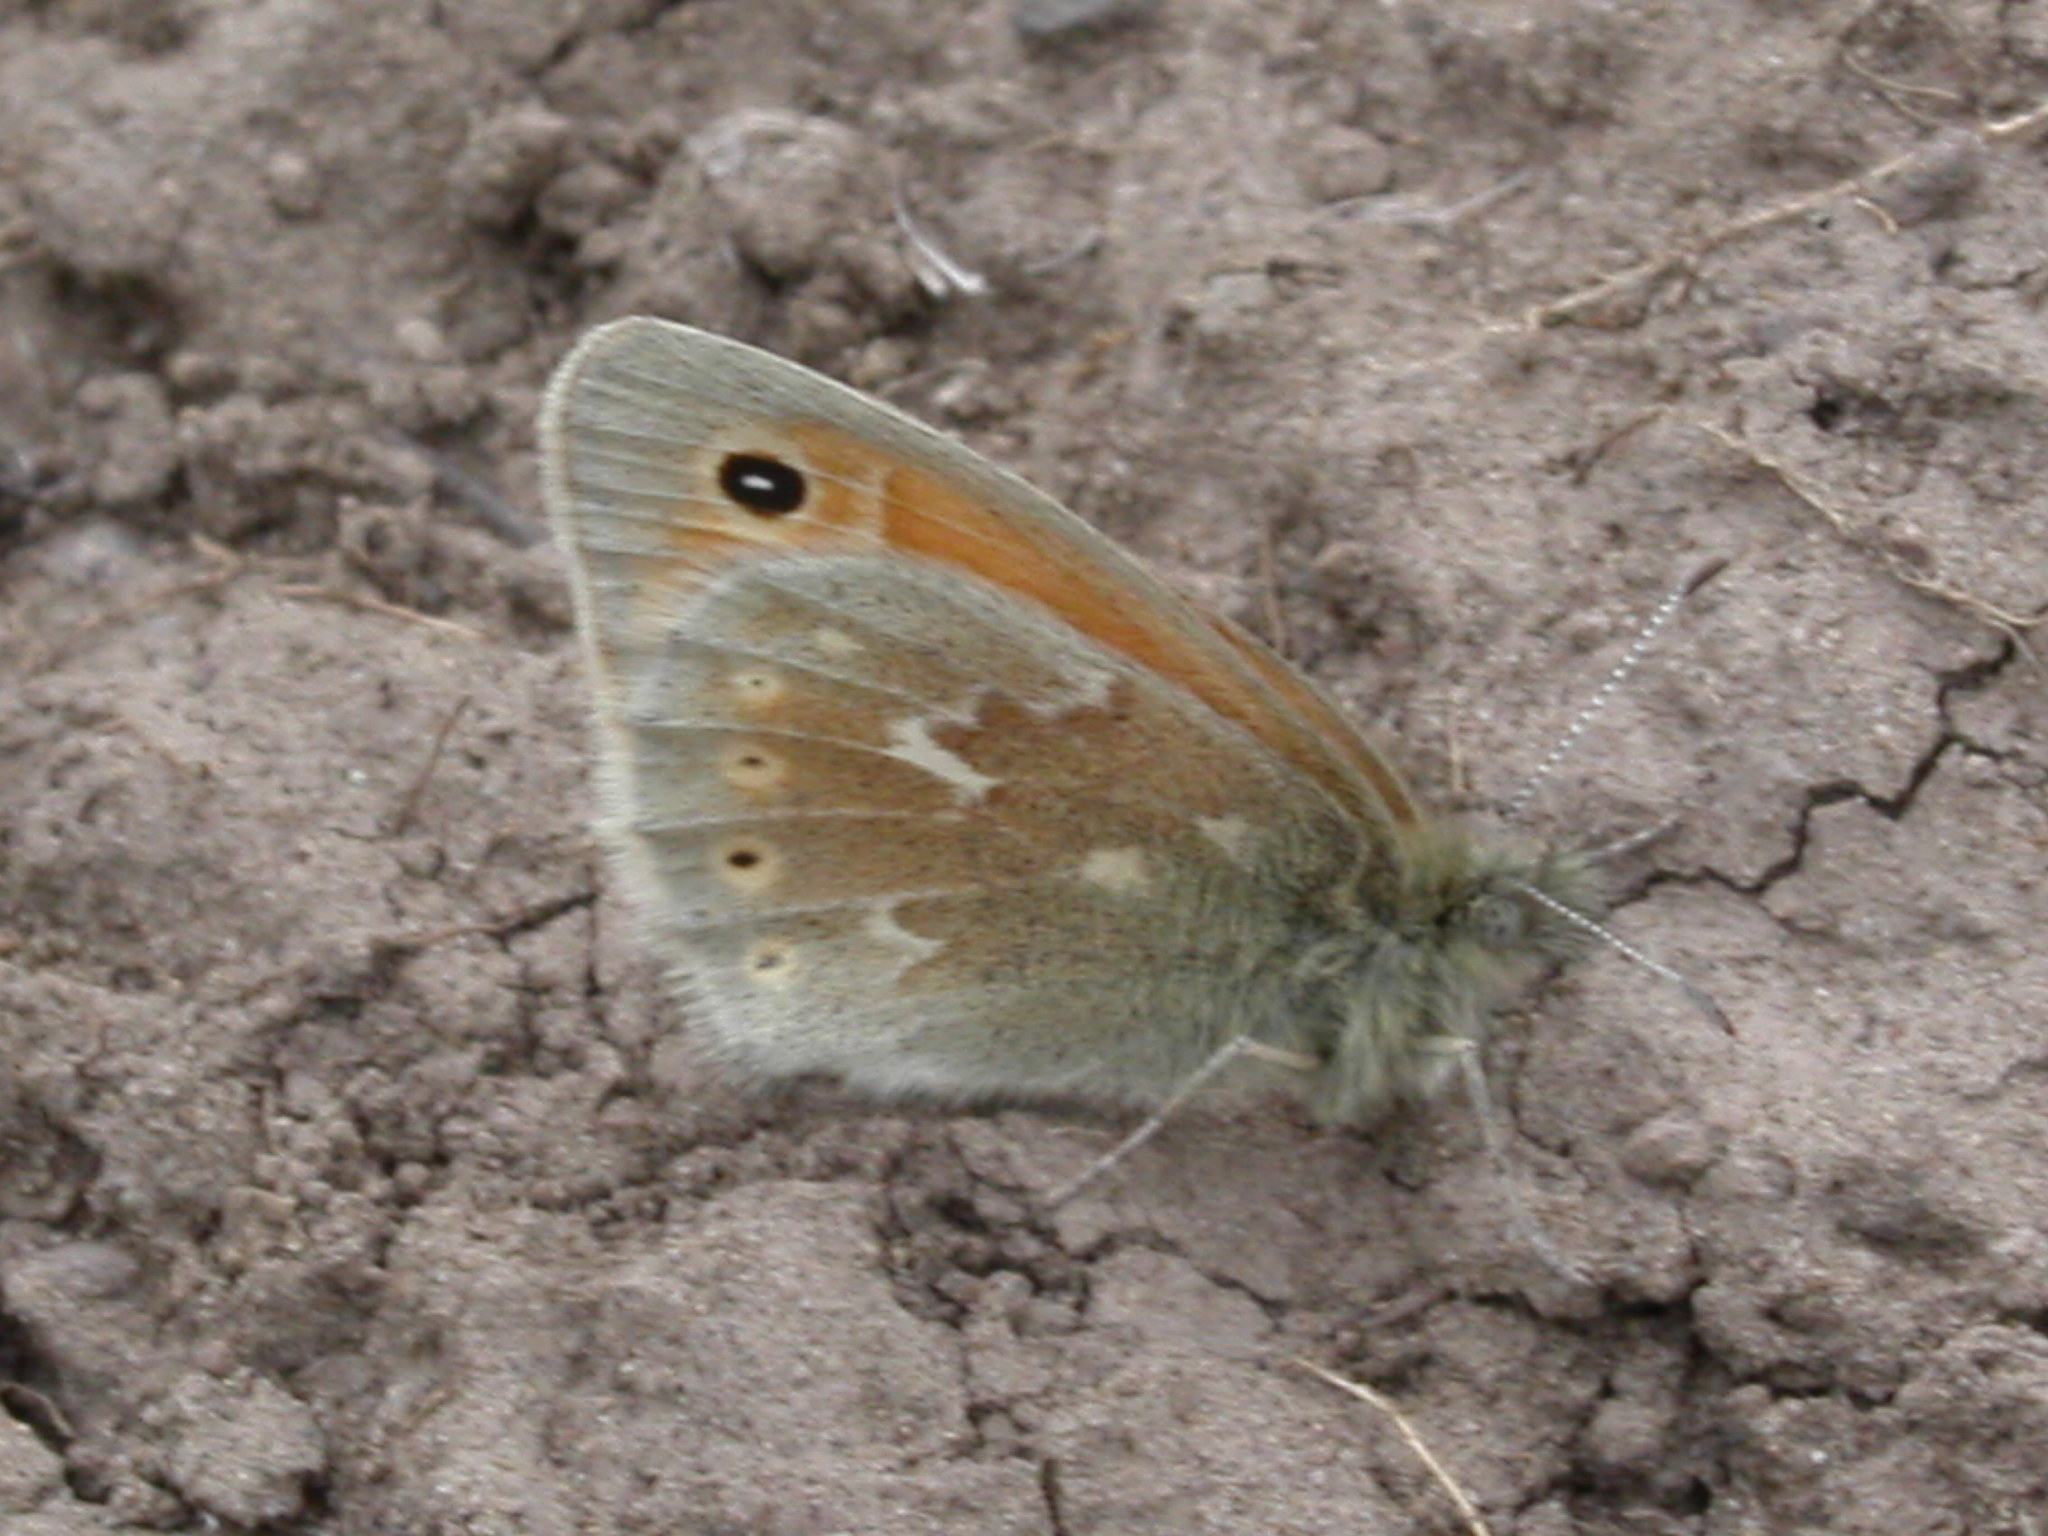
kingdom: Animalia
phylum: Arthropoda
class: Insecta
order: Lepidoptera
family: Nymphalidae
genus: Coenonympha
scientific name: Coenonympha california
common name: Common ringlet
